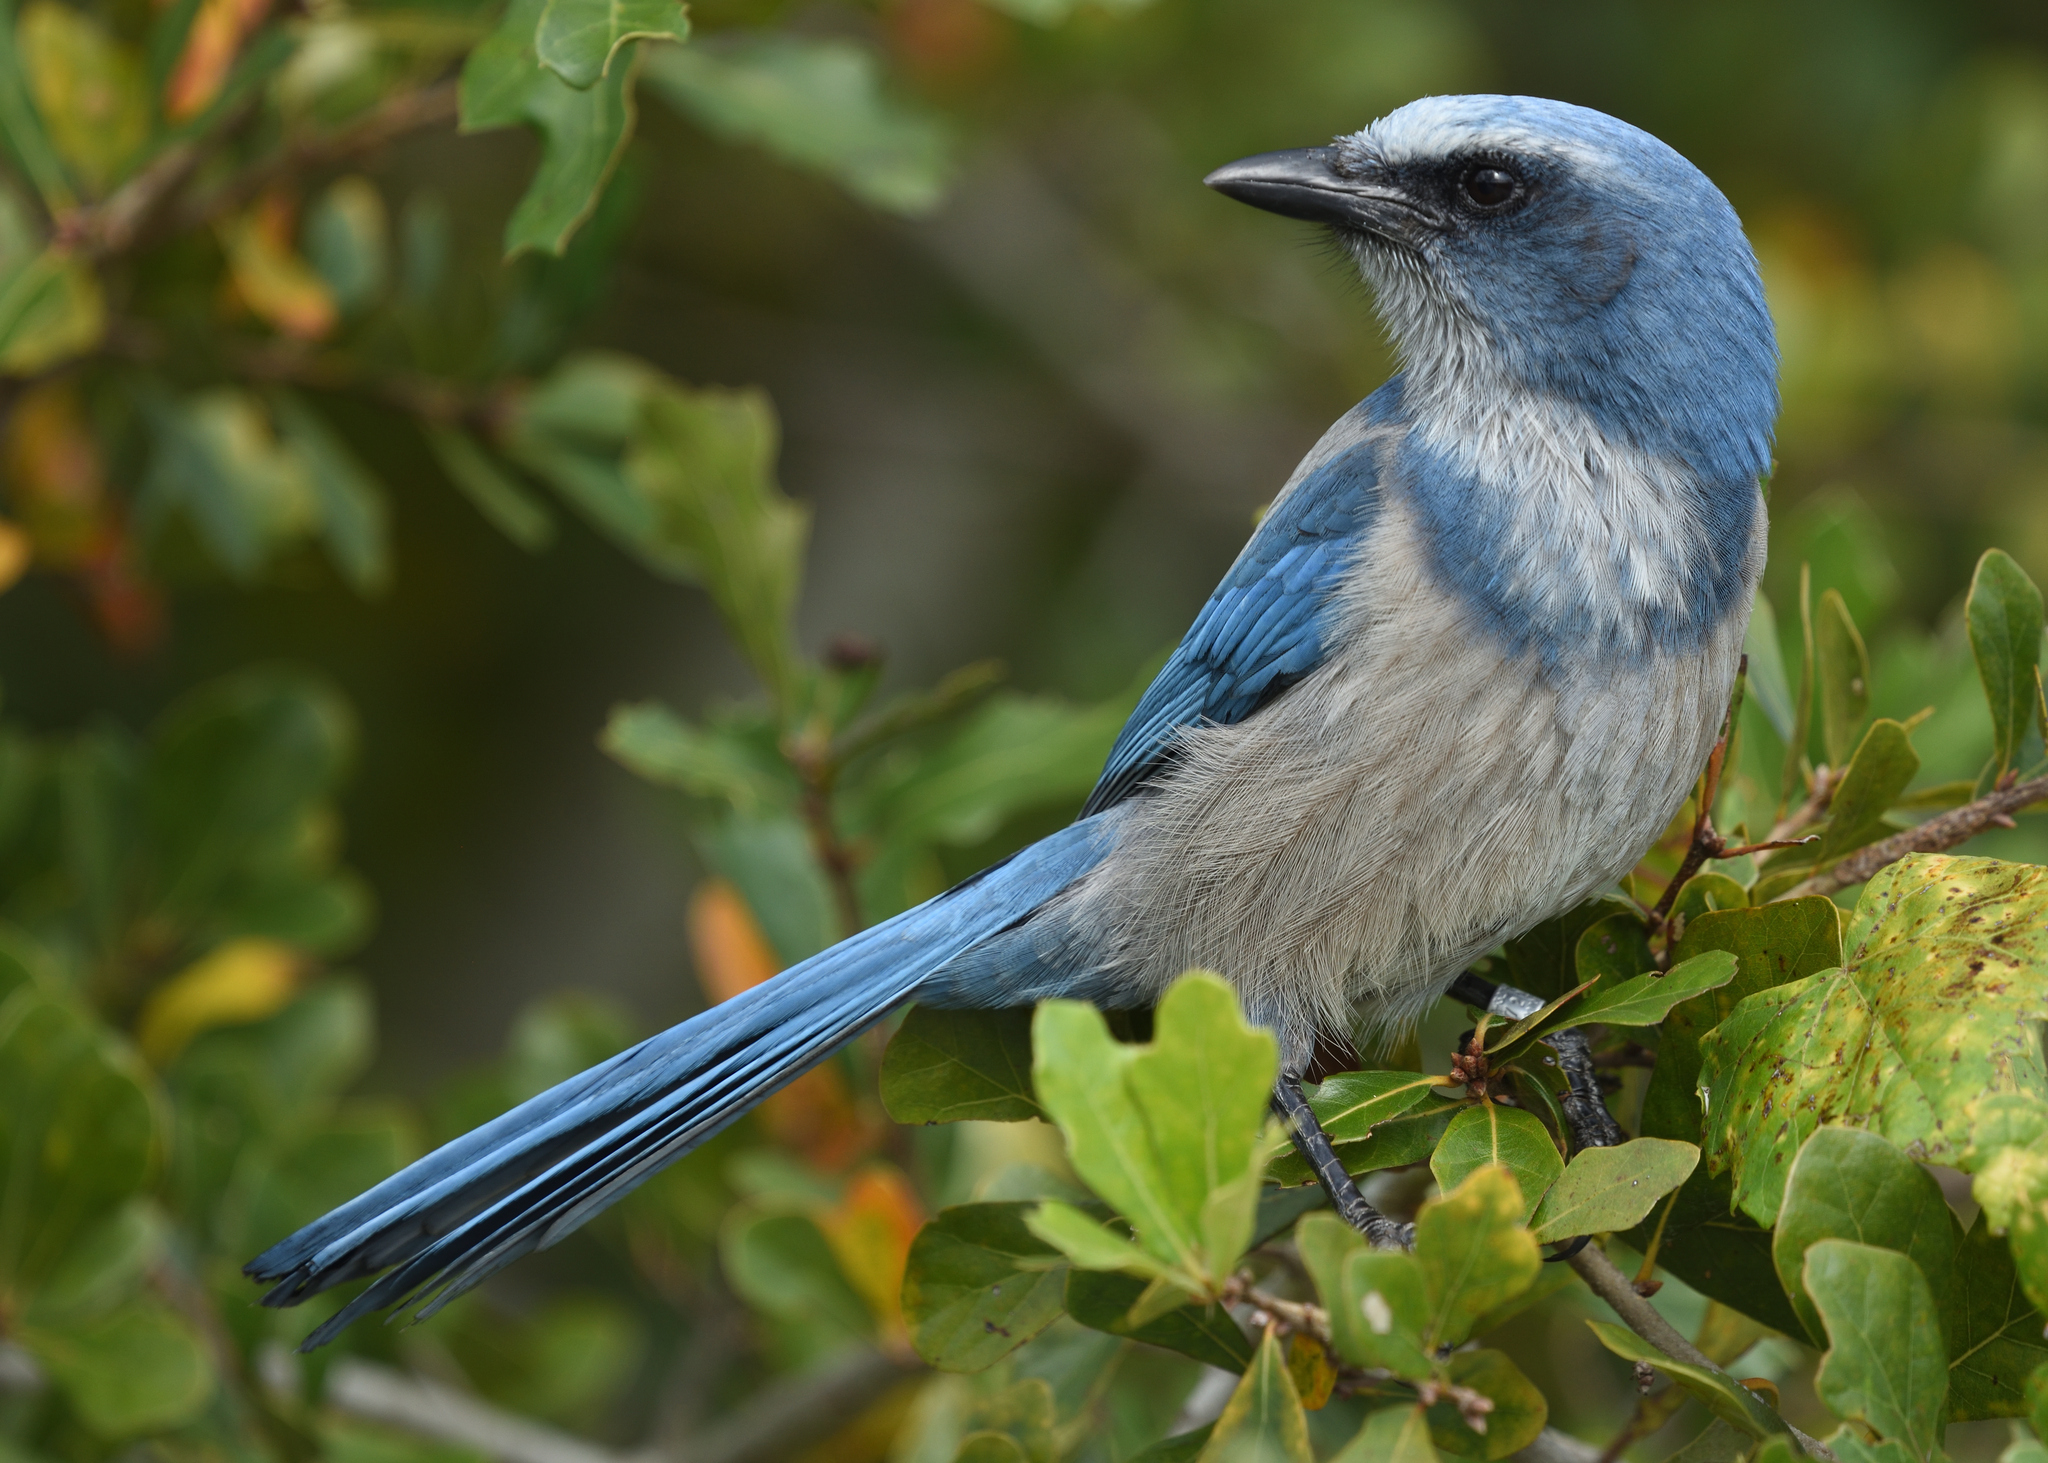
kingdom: Animalia
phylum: Chordata
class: Aves
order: Passeriformes
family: Corvidae
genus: Aphelocoma
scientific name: Aphelocoma coerulescens
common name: Florida scrub jay
